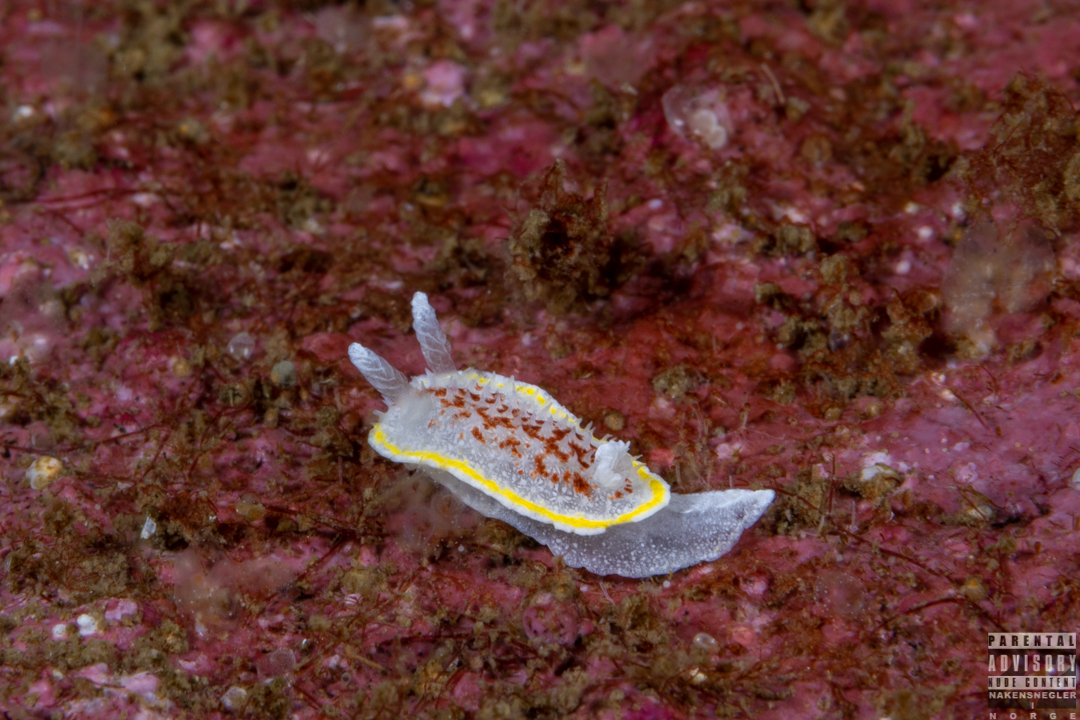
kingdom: Animalia
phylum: Mollusca
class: Gastropoda
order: Nudibranchia
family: Calycidorididae
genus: Diaphorodoris
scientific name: Diaphorodoris luteocincta
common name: Fried egg nudibranch
